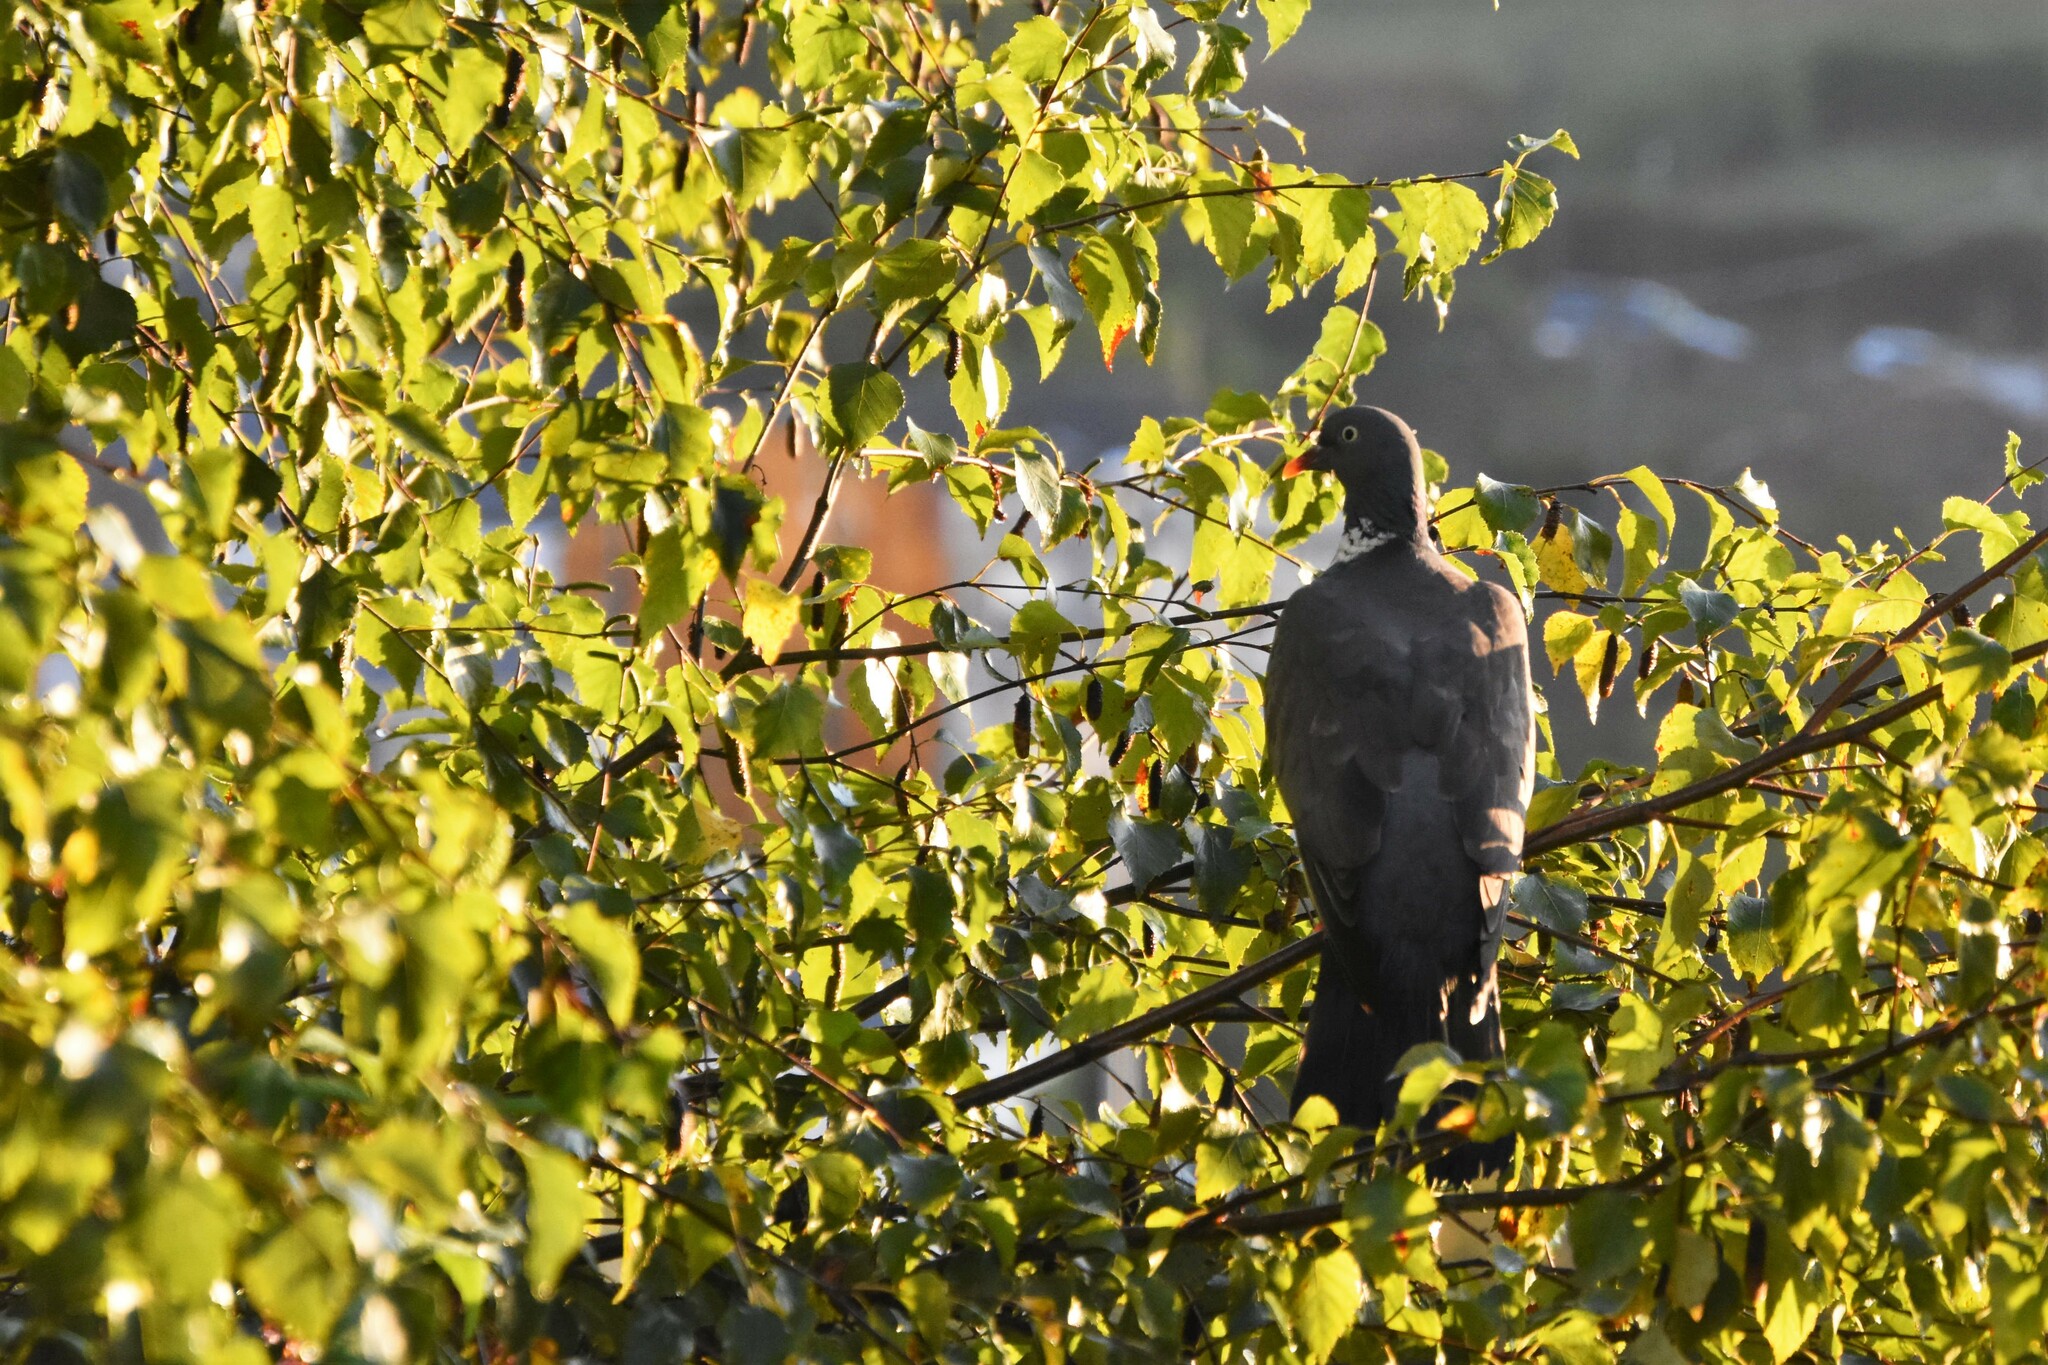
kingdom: Animalia
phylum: Chordata
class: Aves
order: Columbiformes
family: Columbidae
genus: Columba
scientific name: Columba palumbus
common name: Common wood pigeon
